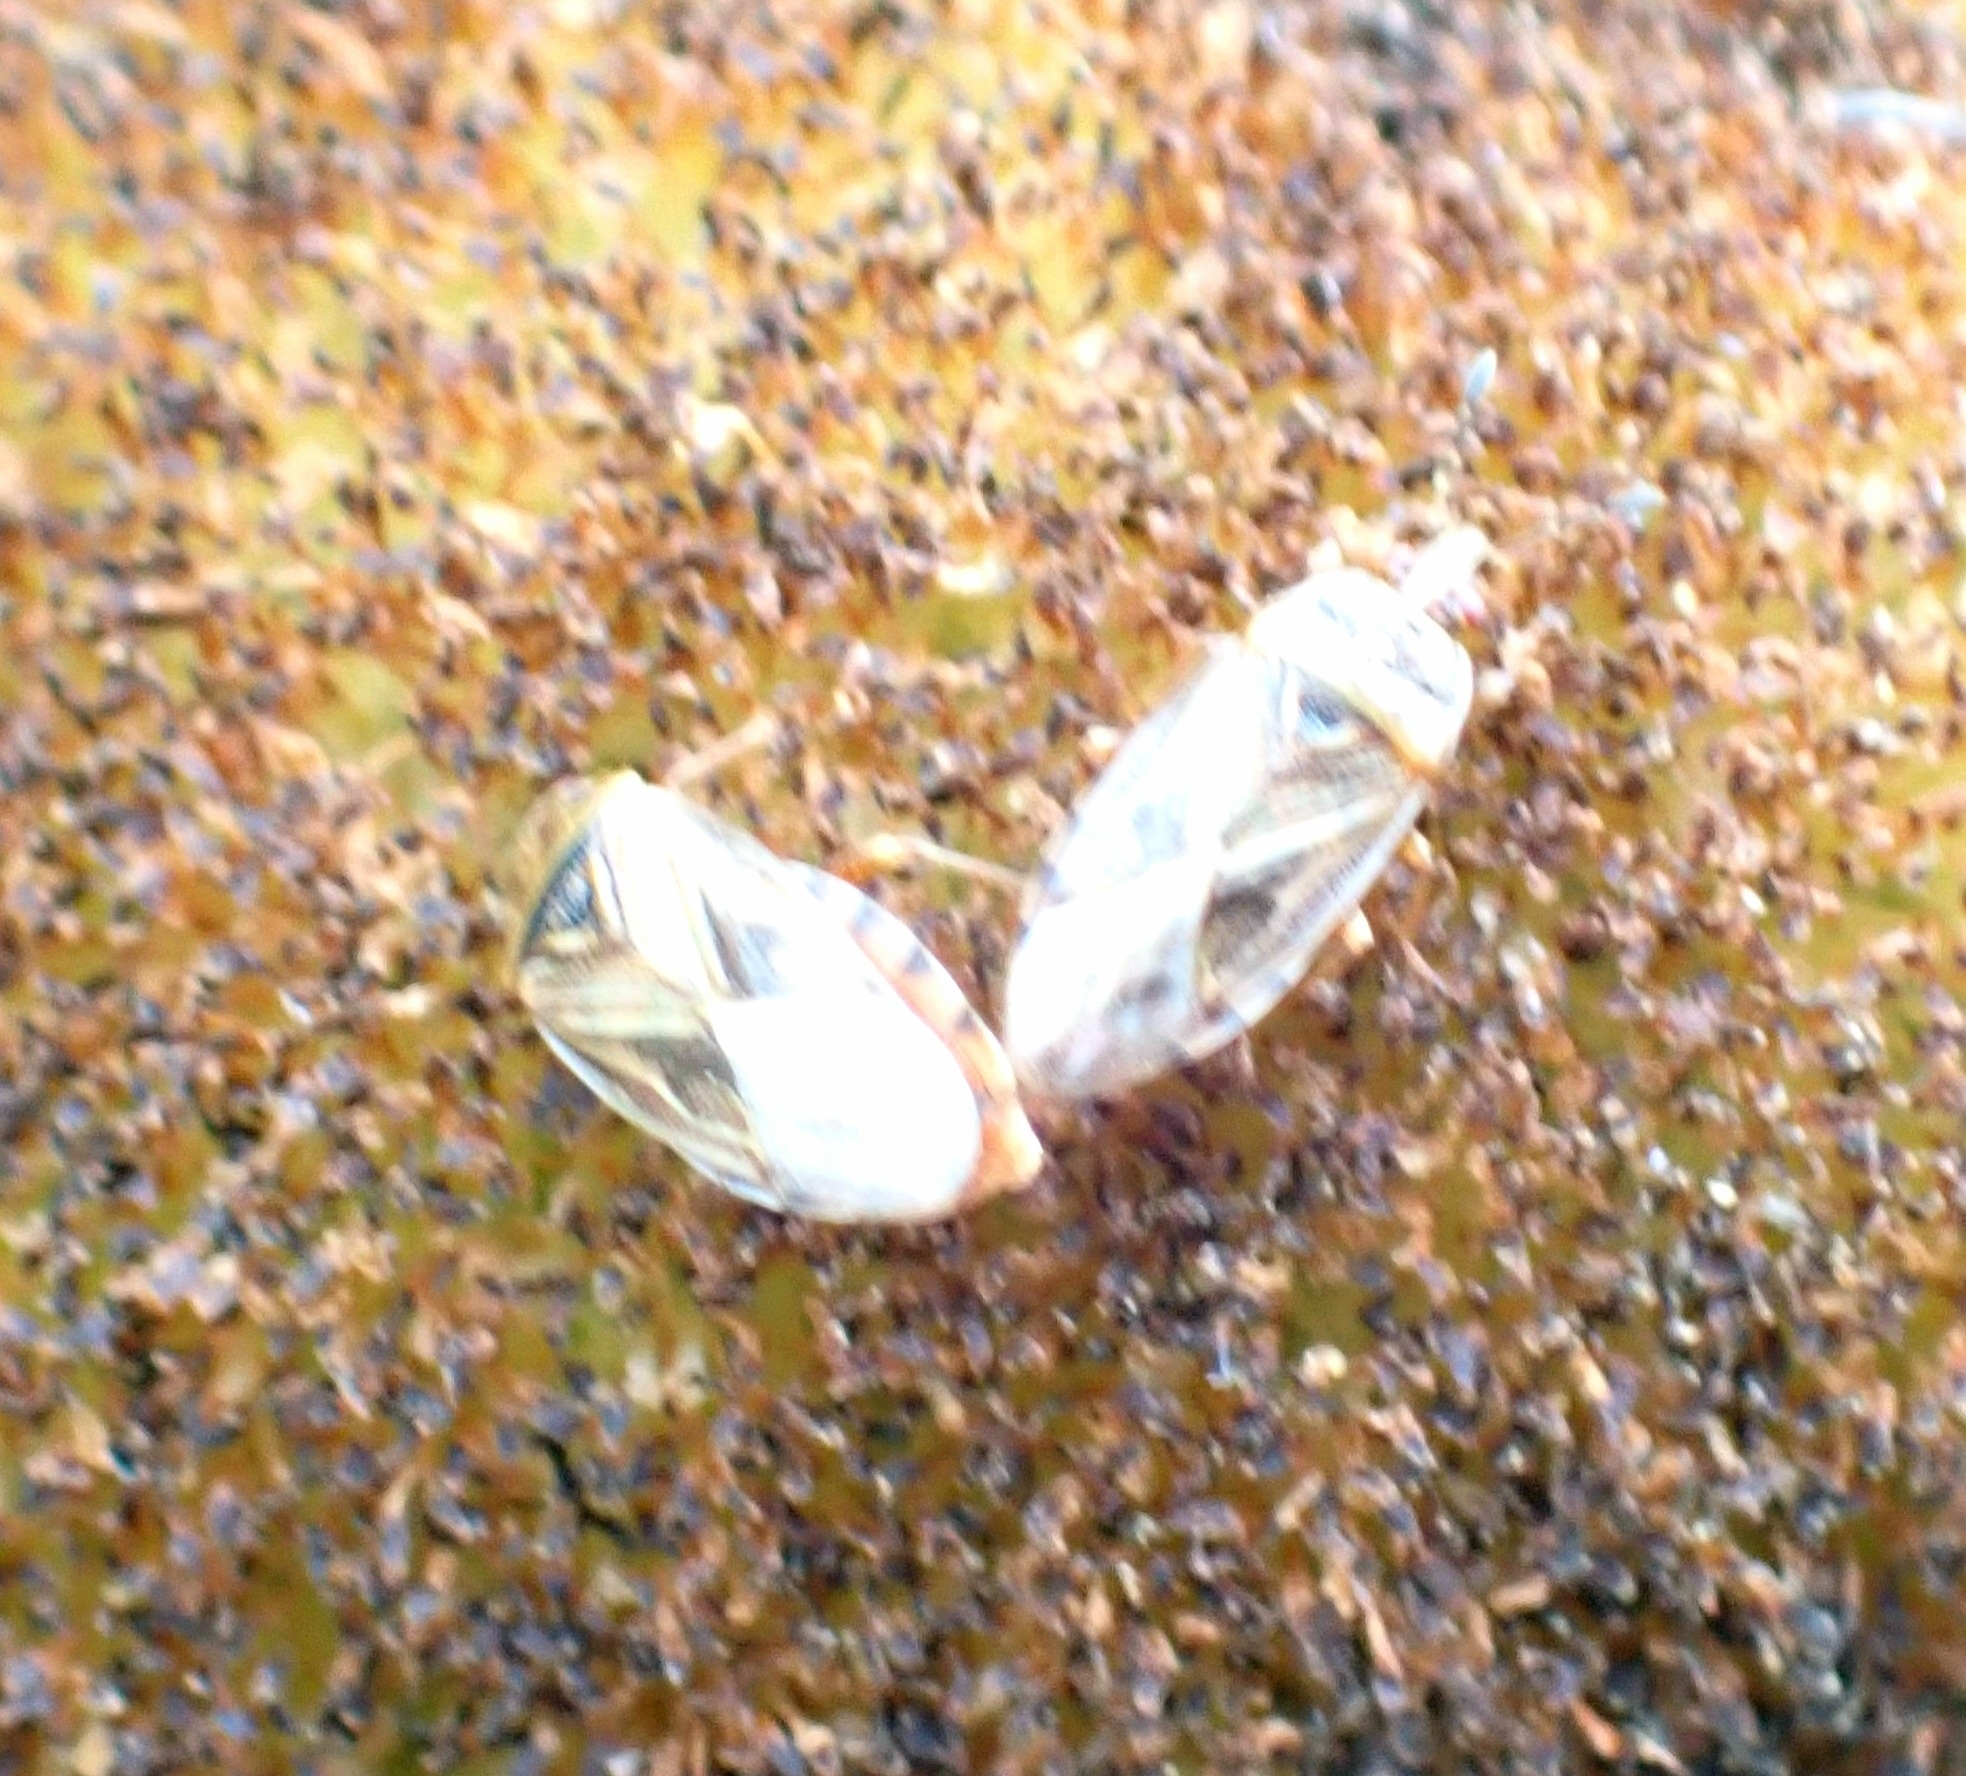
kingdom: Animalia
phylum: Arthropoda
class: Insecta
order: Hemiptera
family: Artheneidae
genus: Chilacis
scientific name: Chilacis typhae
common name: Cattail bug
